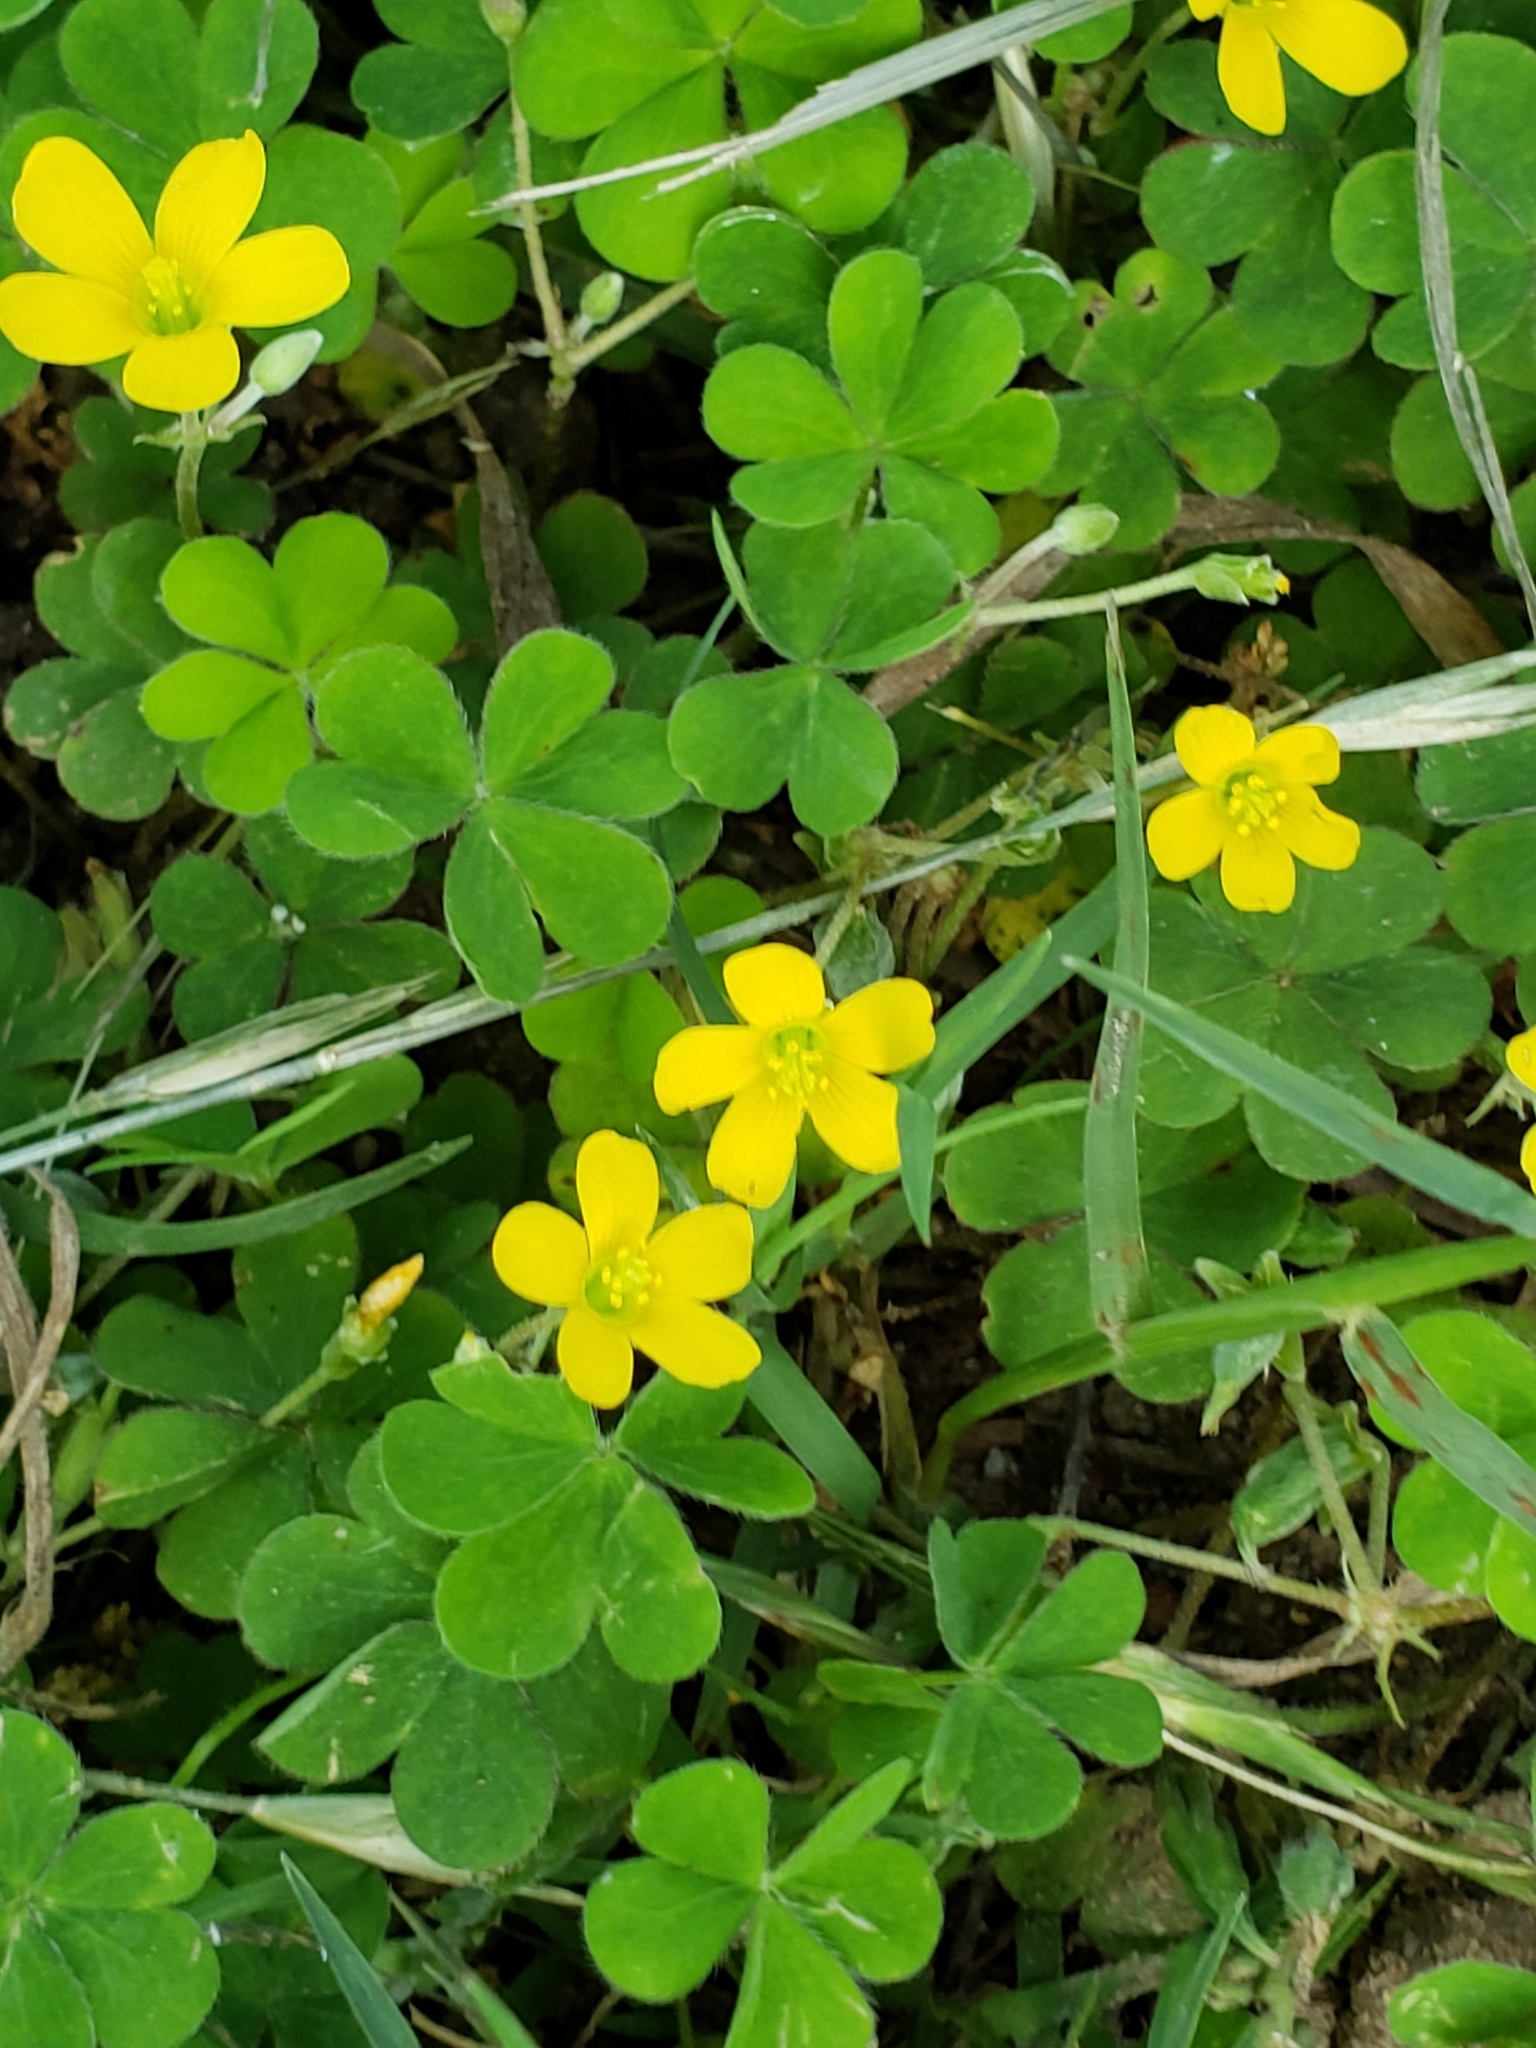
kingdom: Plantae
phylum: Tracheophyta
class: Magnoliopsida
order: Oxalidales
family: Oxalidaceae
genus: Oxalis
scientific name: Oxalis corniculata
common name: Procumbent yellow-sorrel
